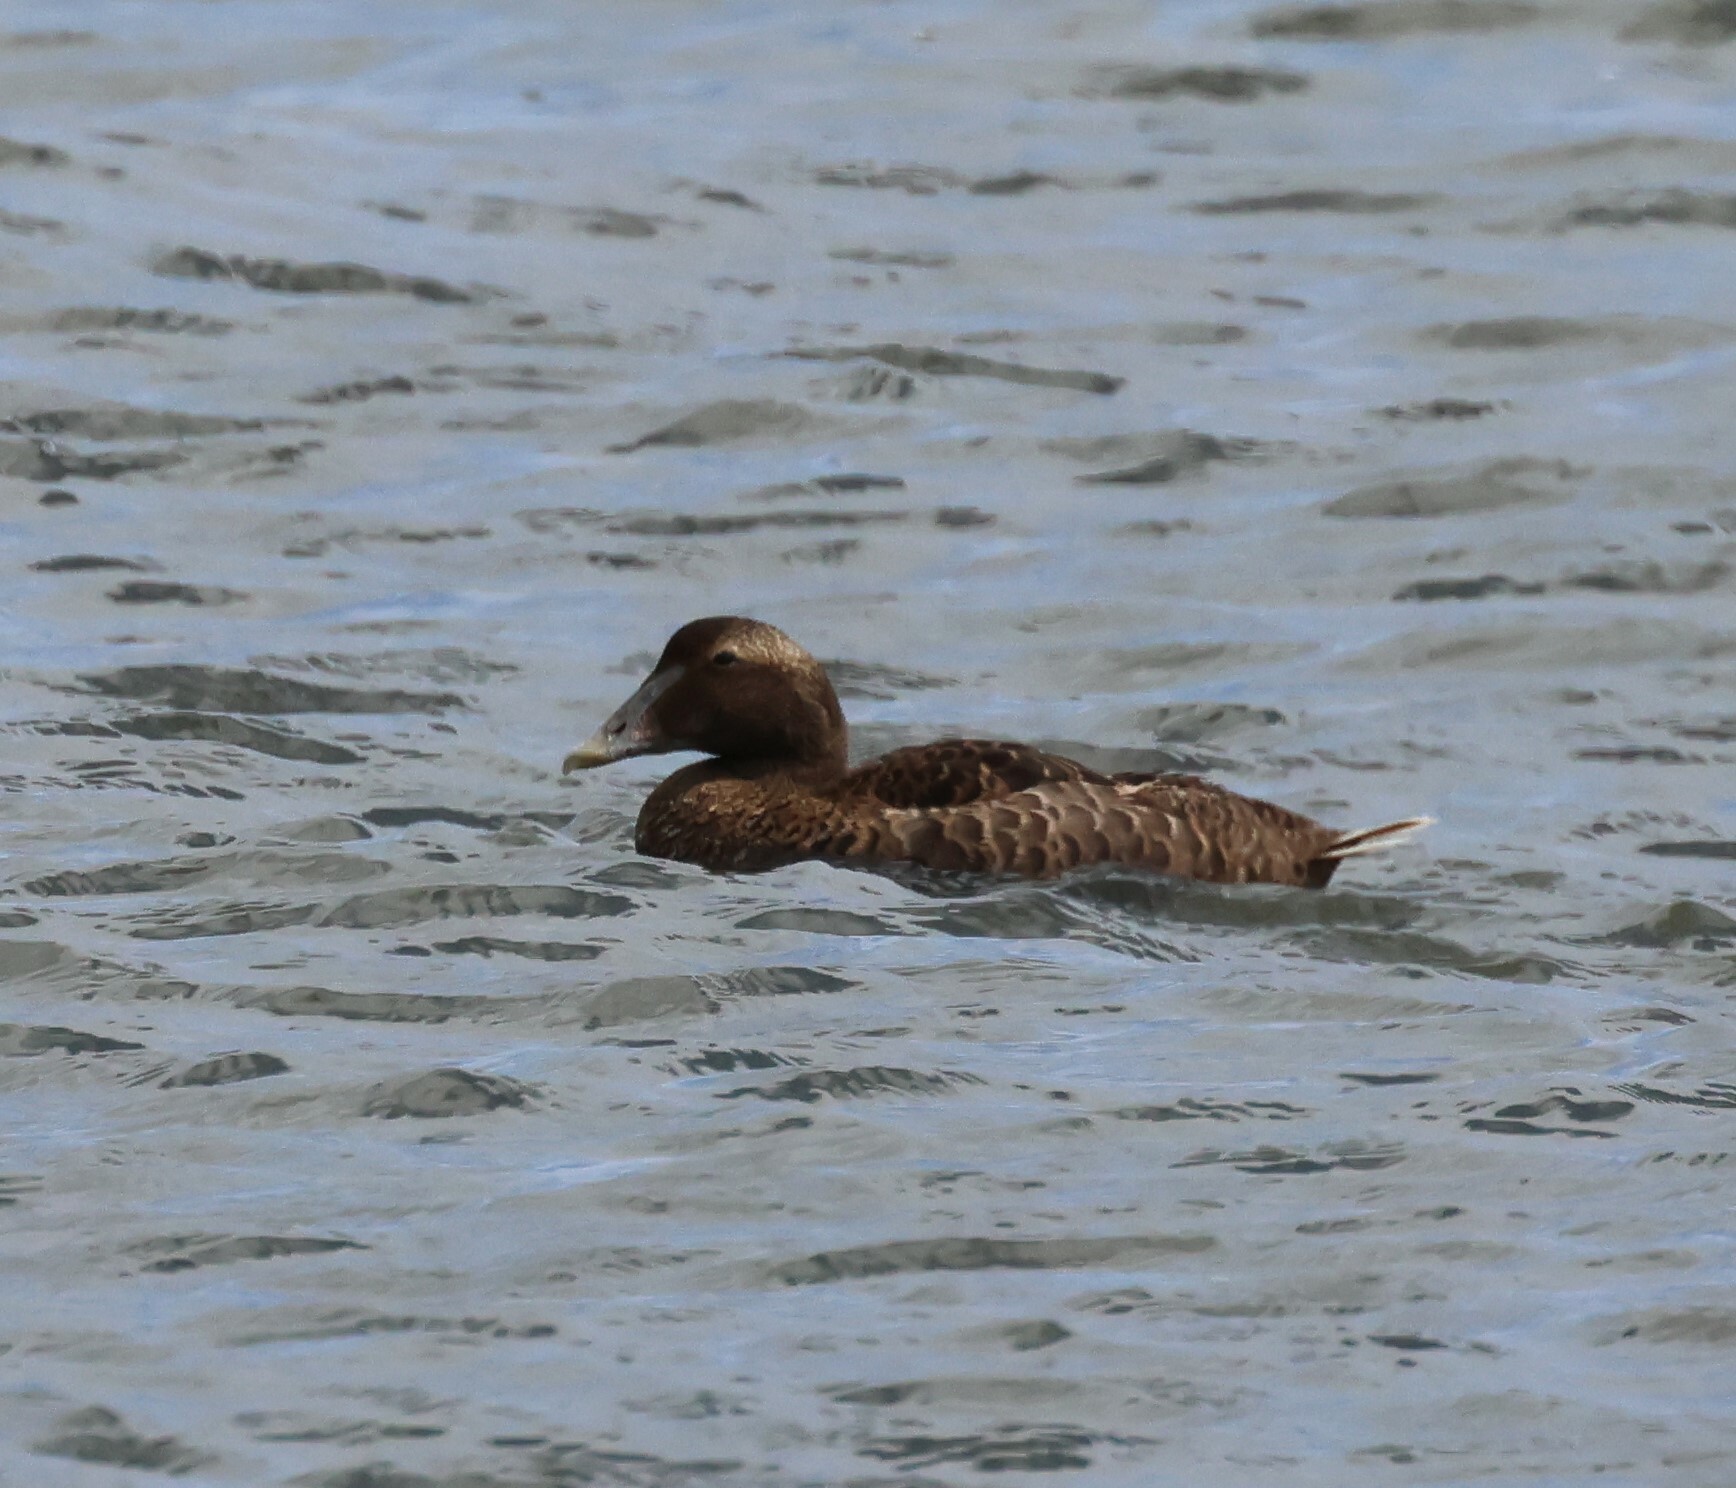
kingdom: Animalia
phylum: Chordata
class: Aves
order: Anseriformes
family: Anatidae
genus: Somateria
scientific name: Somateria mollissima
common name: Common eider
